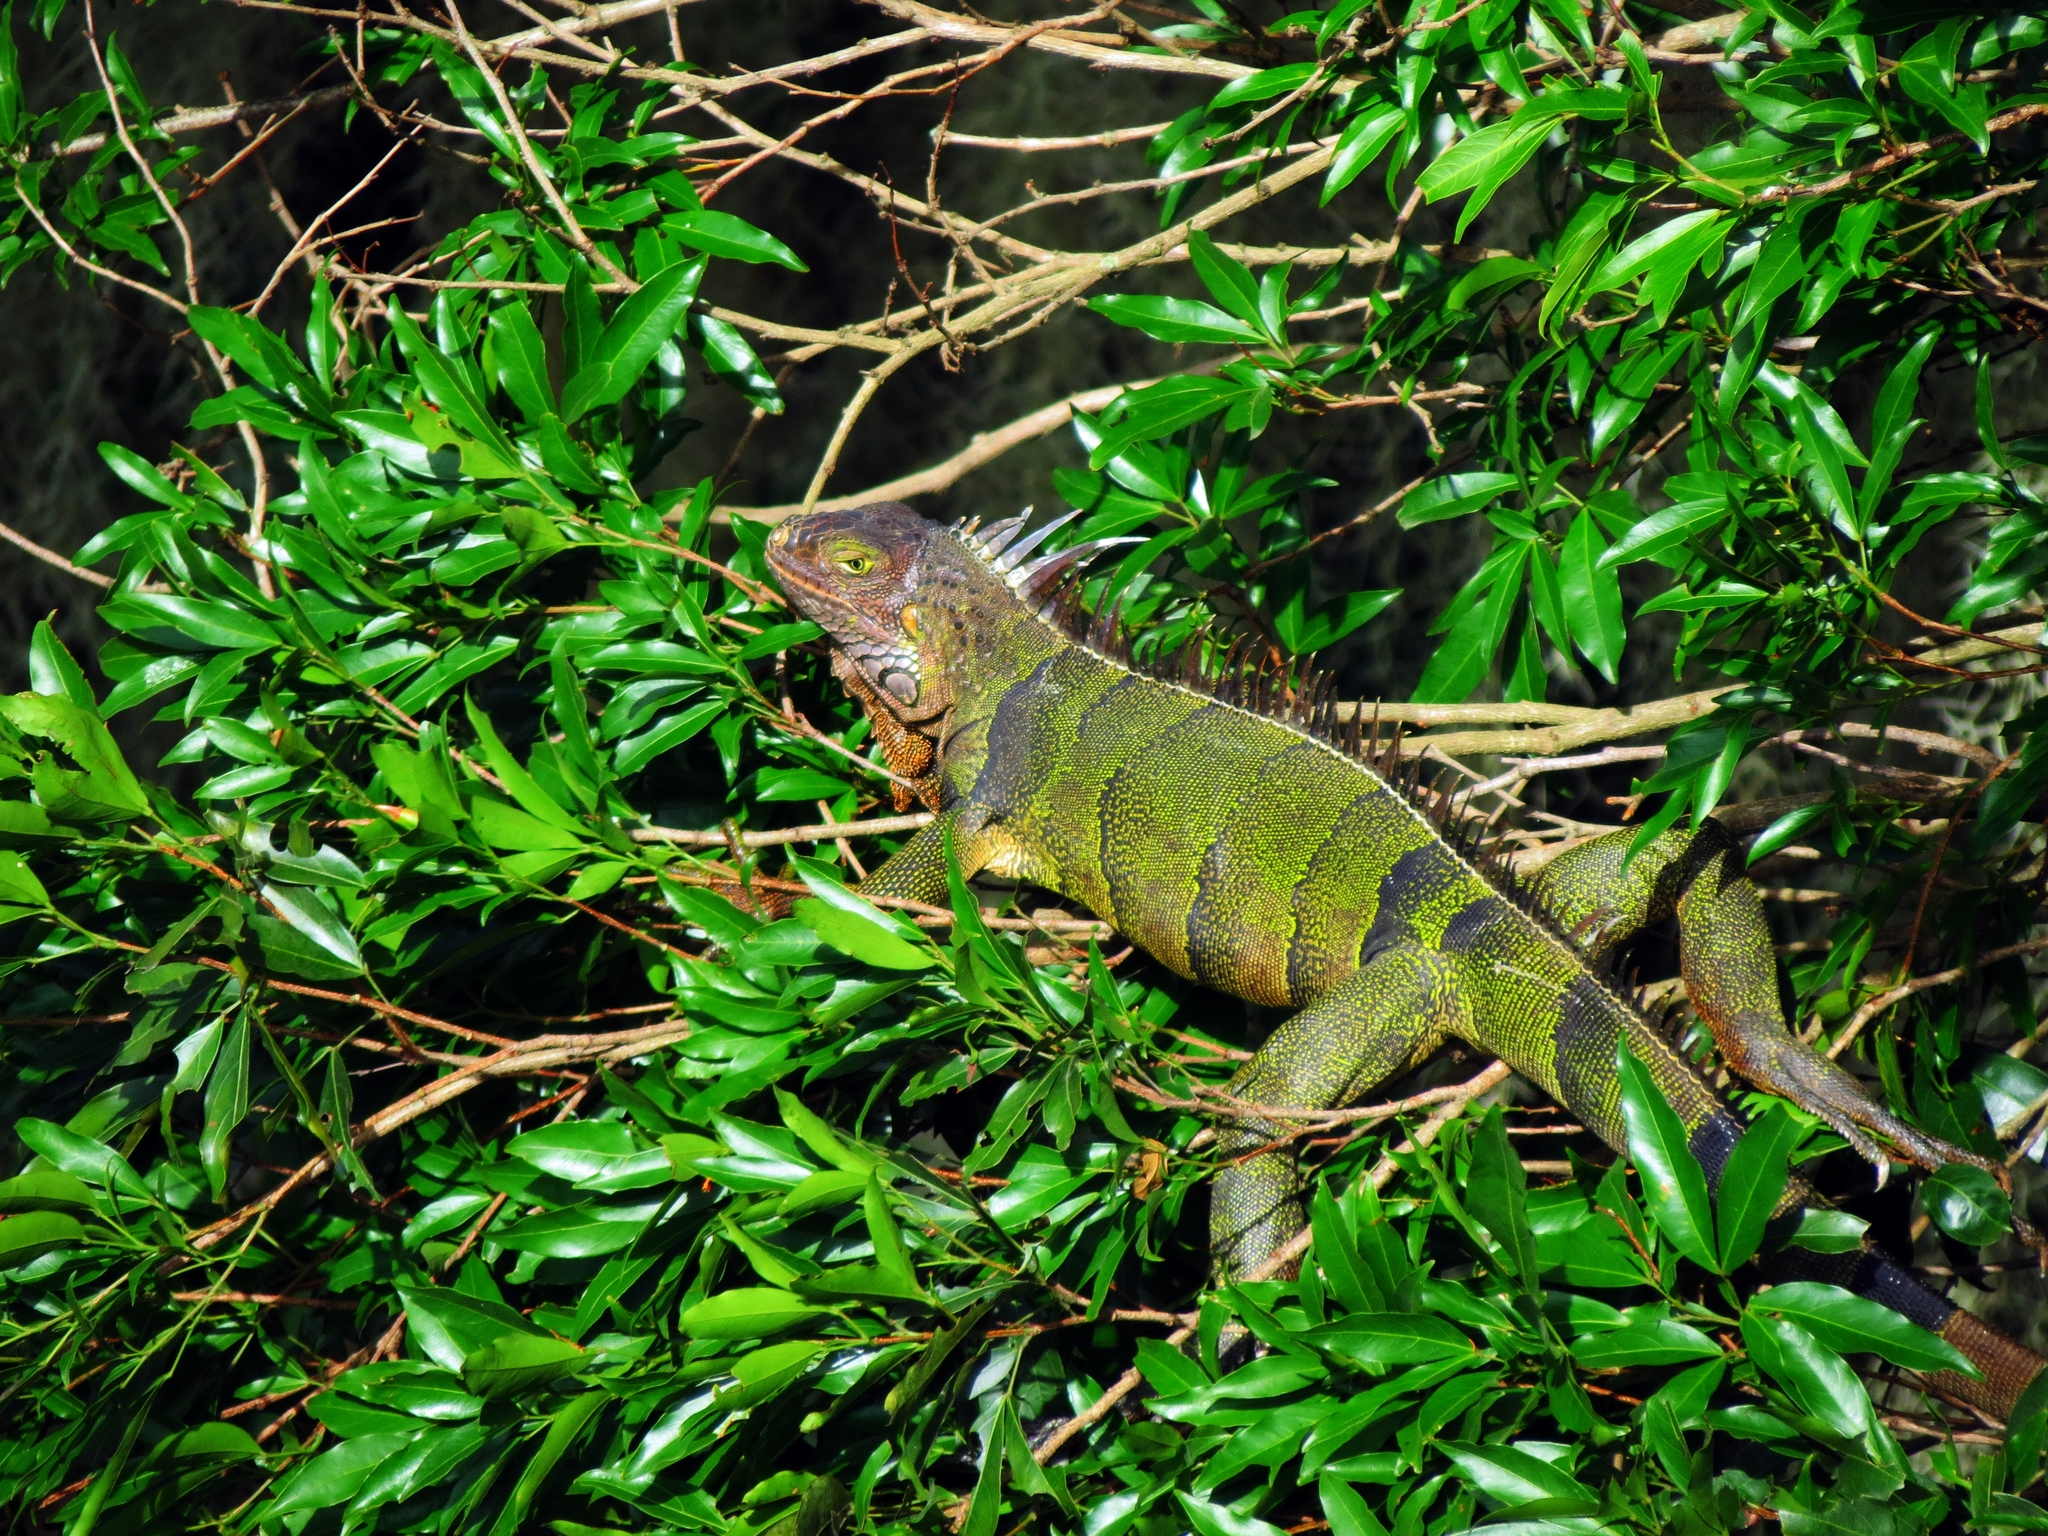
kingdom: Animalia
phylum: Chordata
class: Squamata
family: Iguanidae
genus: Iguana
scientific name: Iguana iguana
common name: Green iguana
